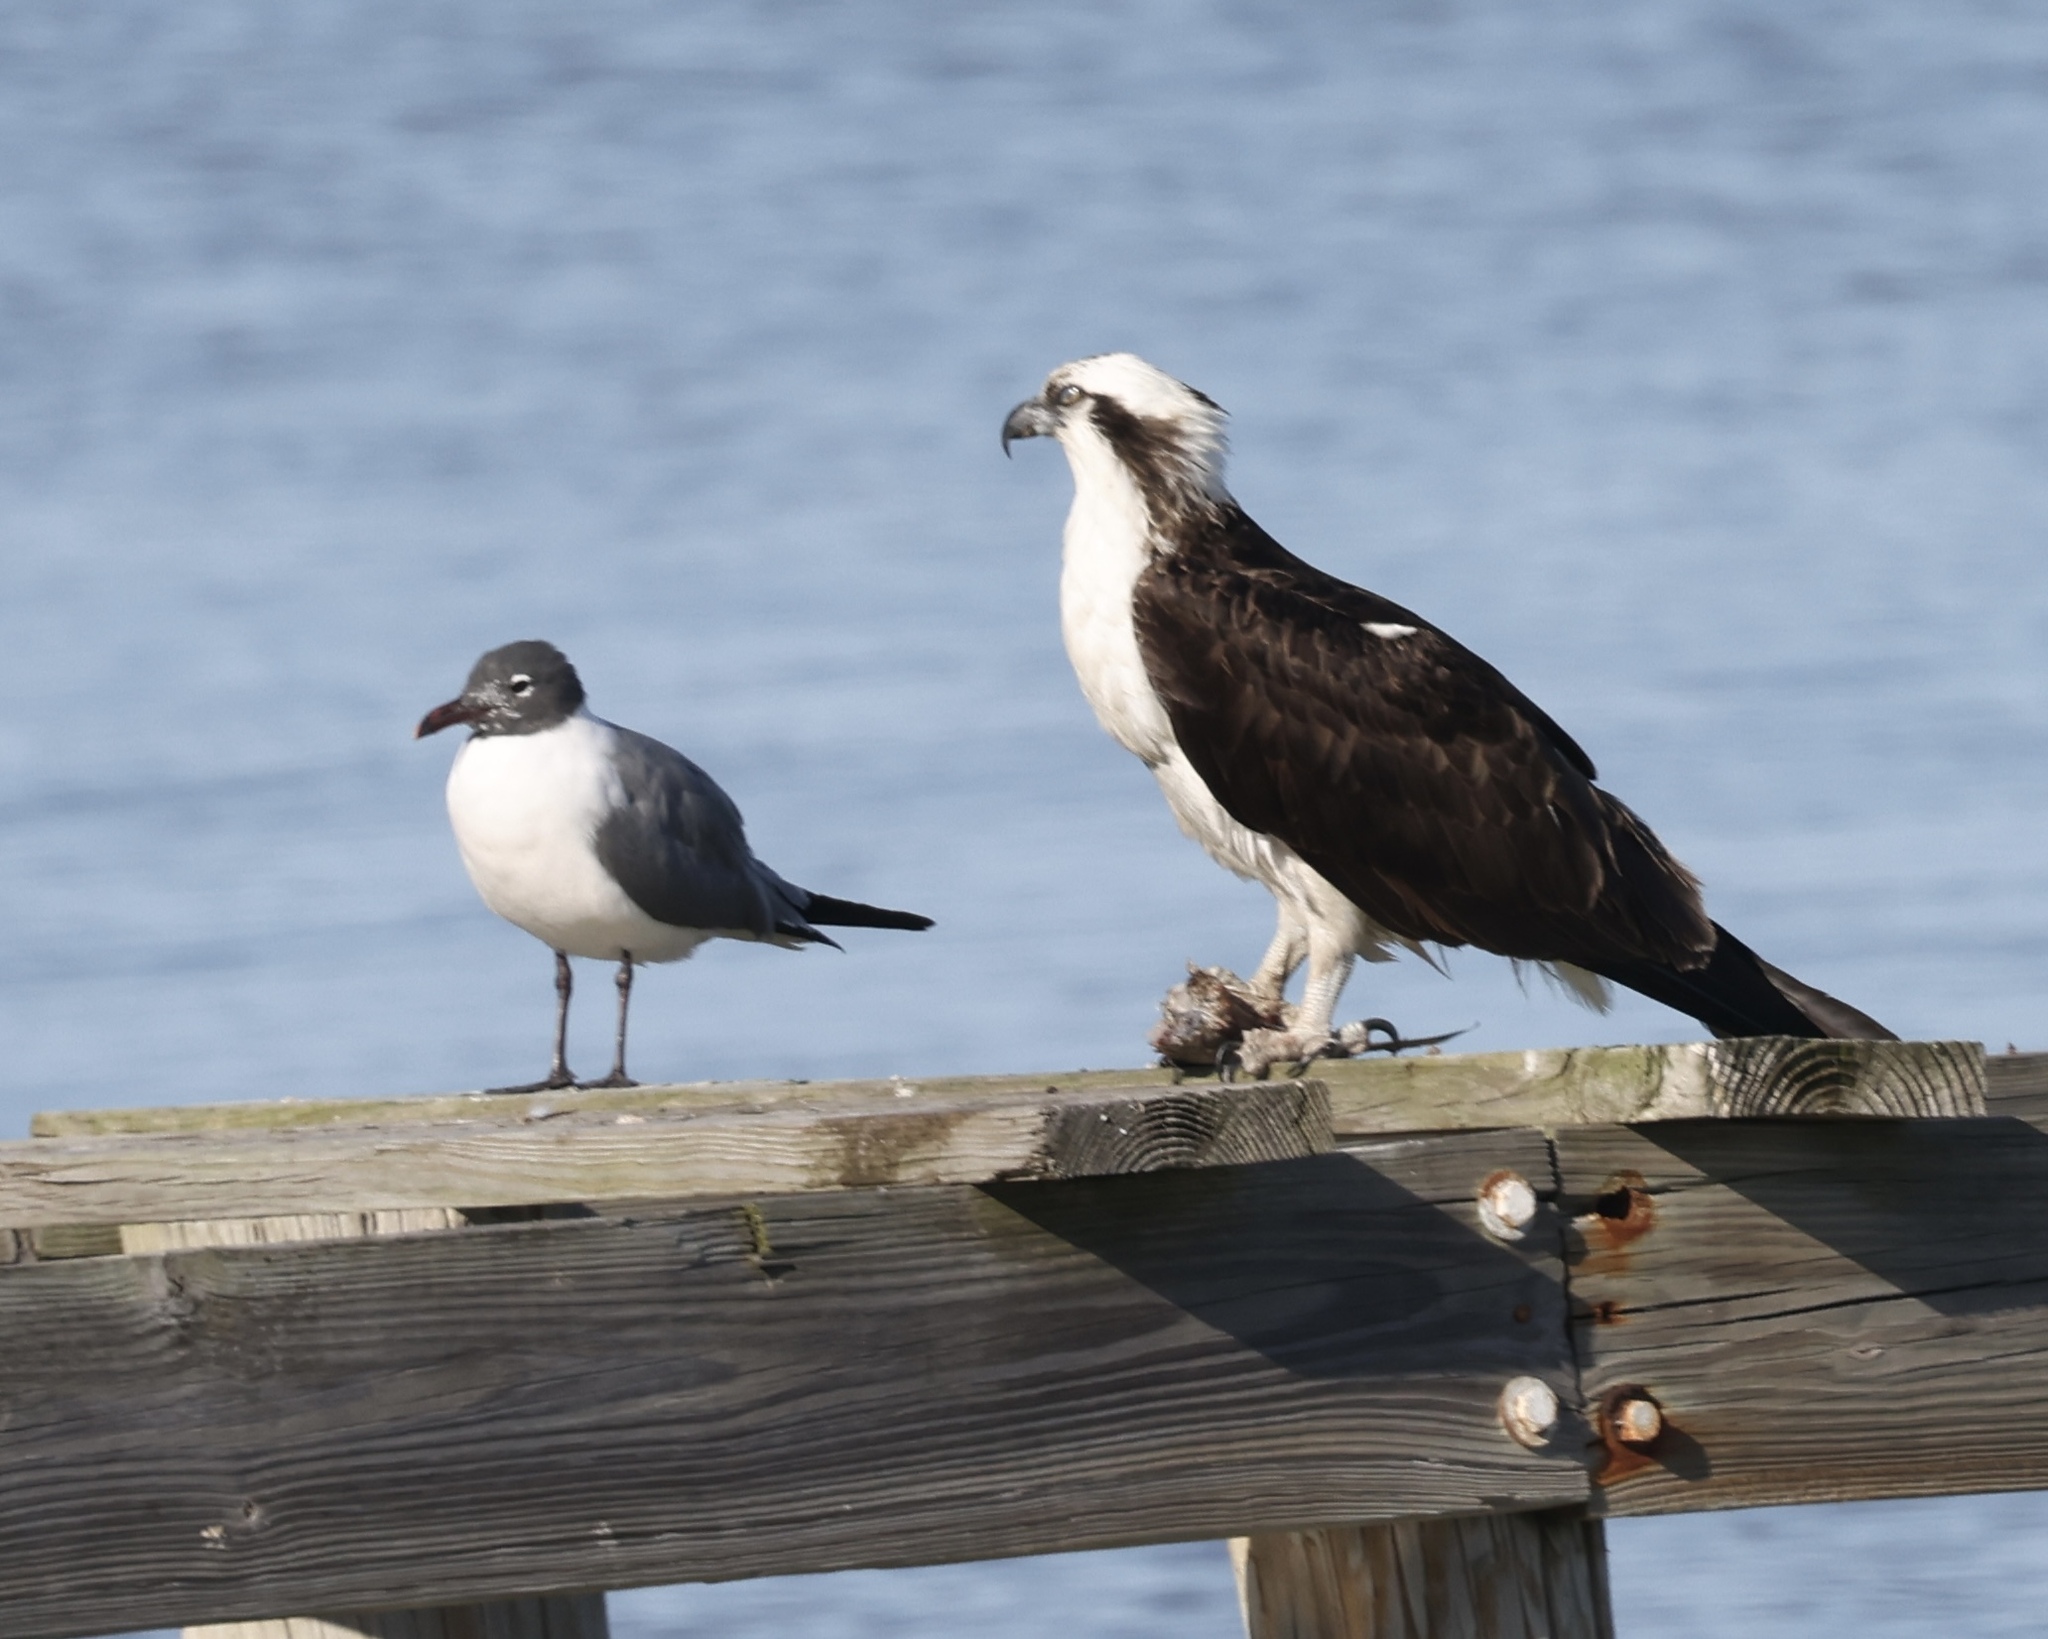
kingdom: Animalia
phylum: Chordata
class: Aves
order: Accipitriformes
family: Pandionidae
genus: Pandion
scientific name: Pandion haliaetus
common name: Osprey
